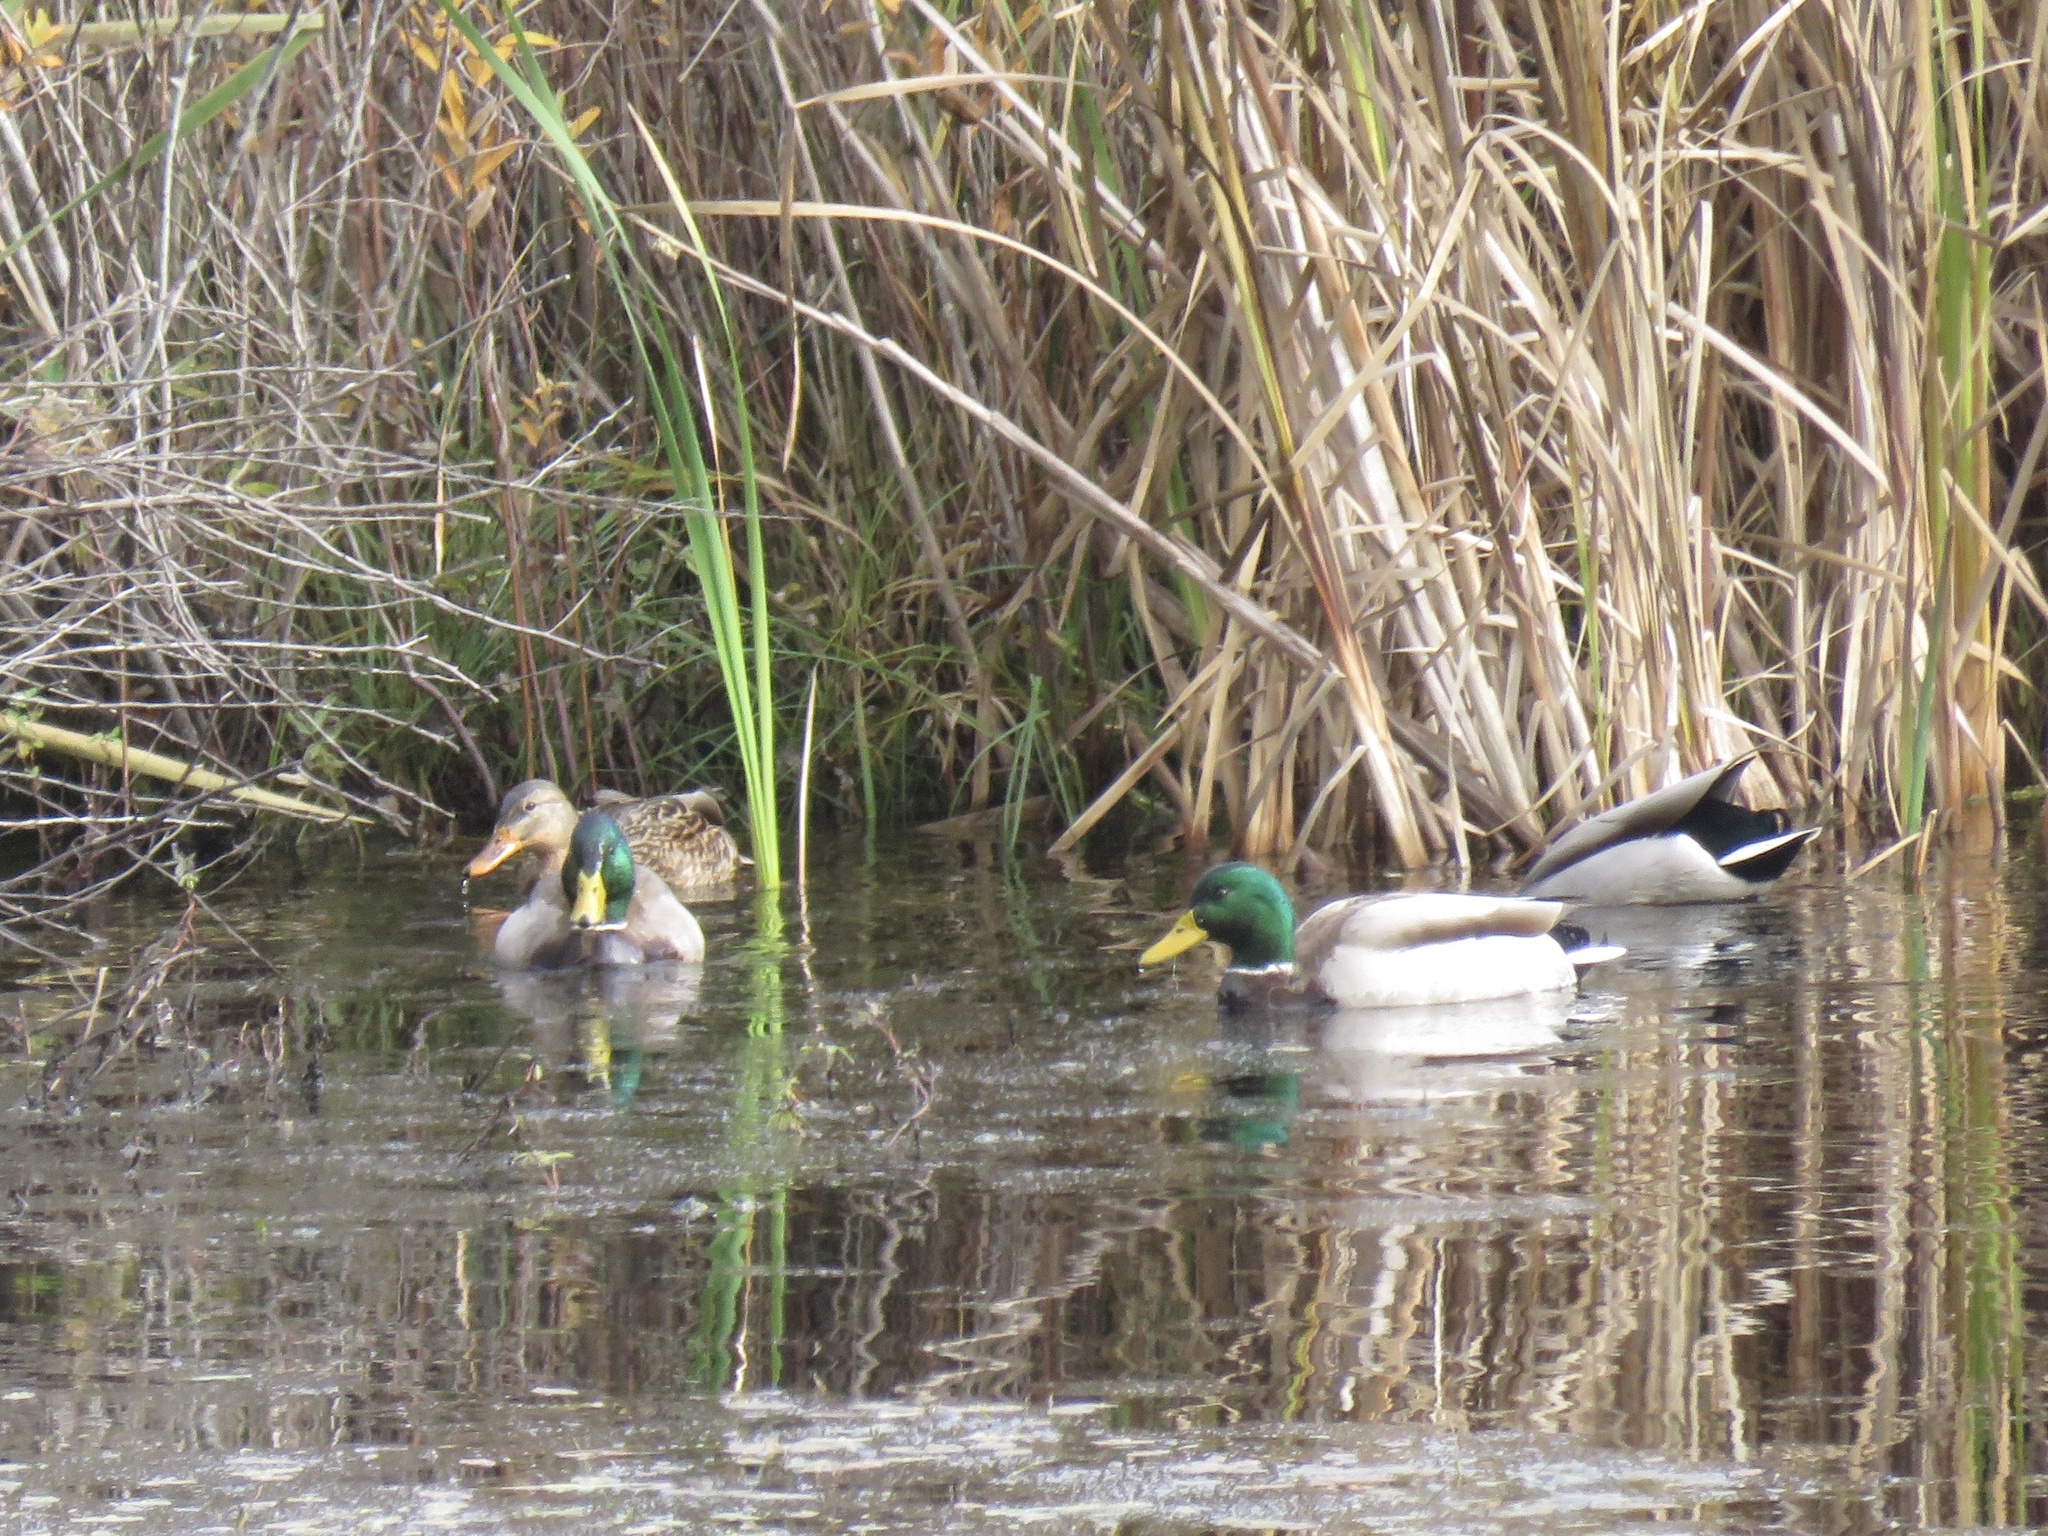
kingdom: Animalia
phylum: Chordata
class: Aves
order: Anseriformes
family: Anatidae
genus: Anas
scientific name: Anas platyrhynchos
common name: Mallard
